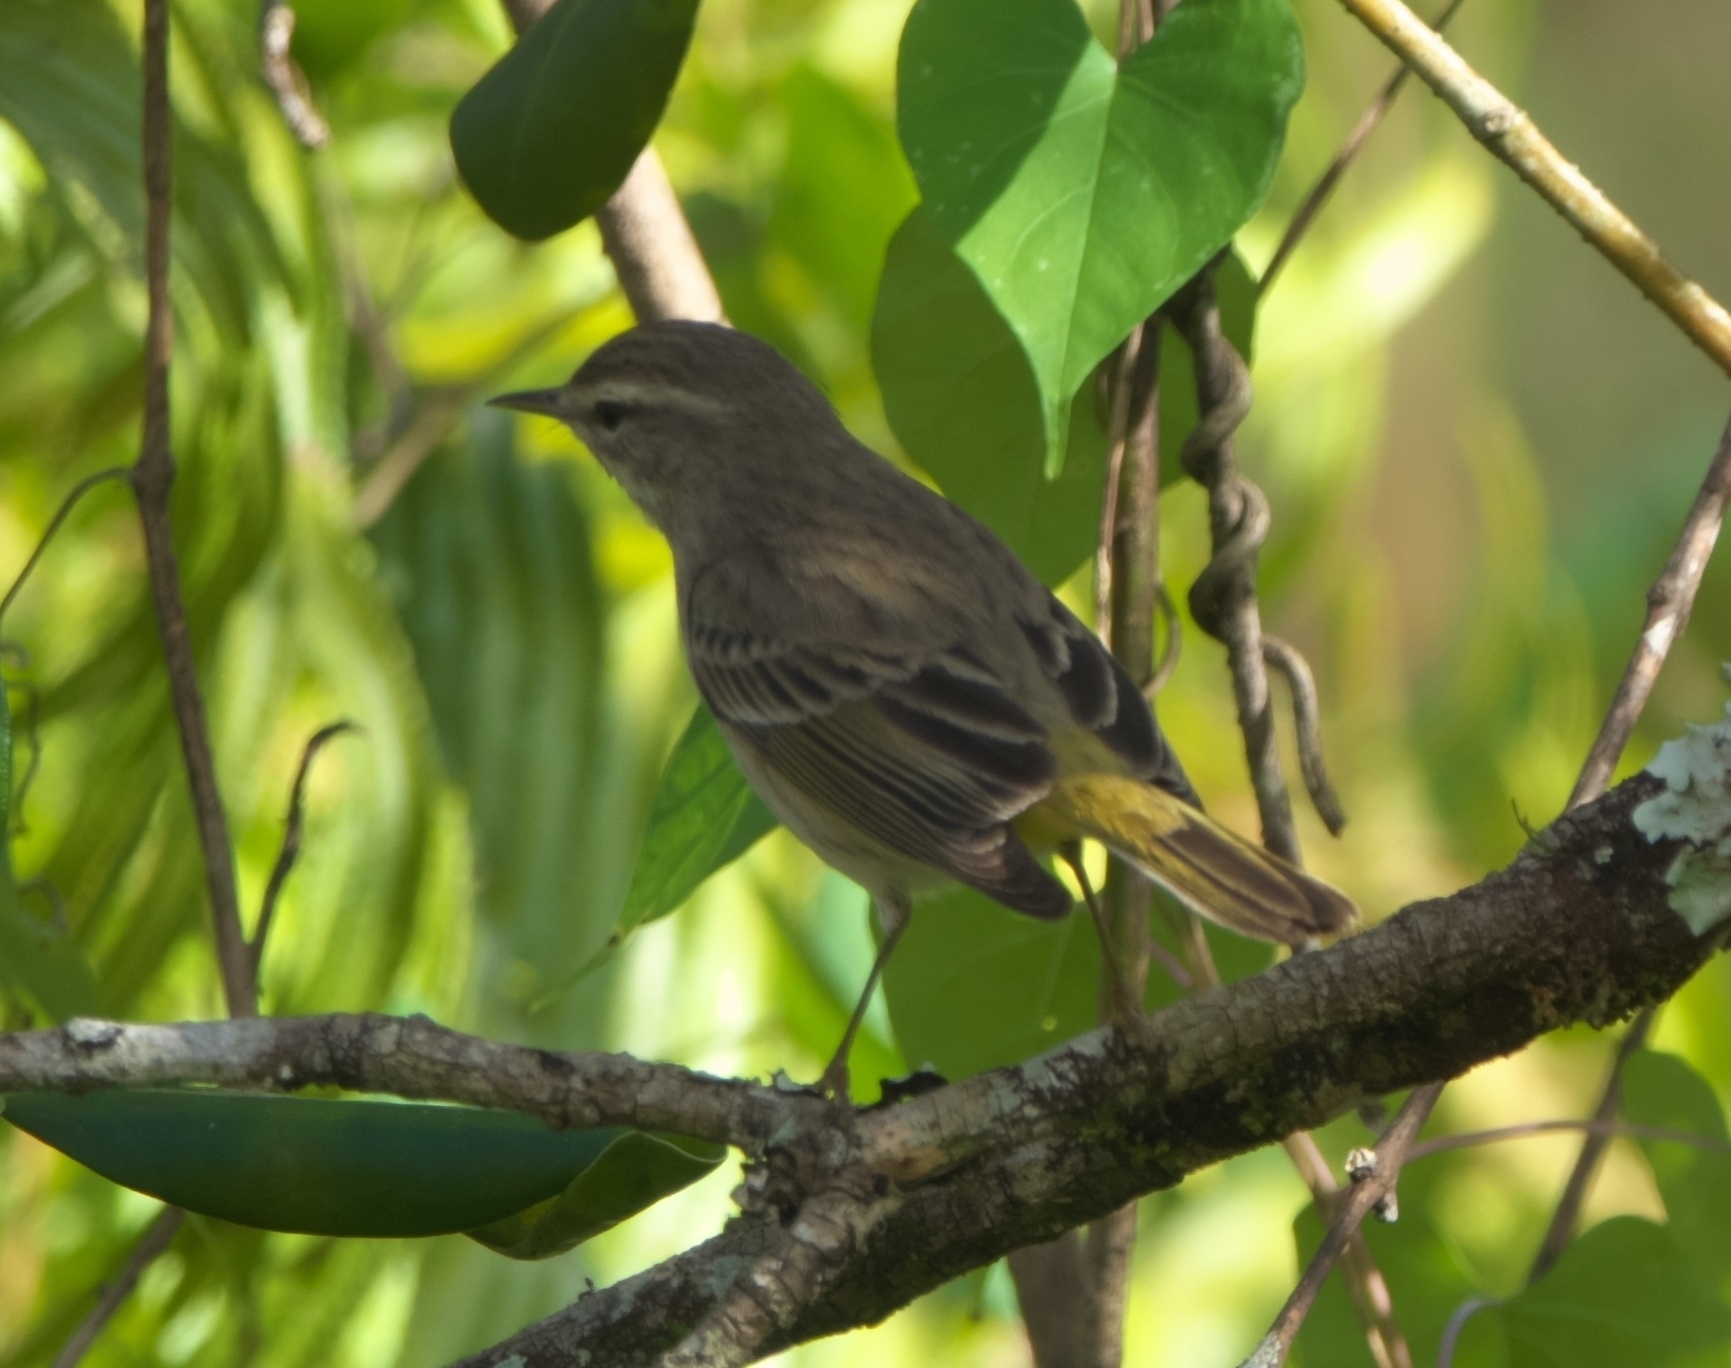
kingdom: Animalia
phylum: Chordata
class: Aves
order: Passeriformes
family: Parulidae
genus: Setophaga
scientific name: Setophaga palmarum
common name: Palm warbler
